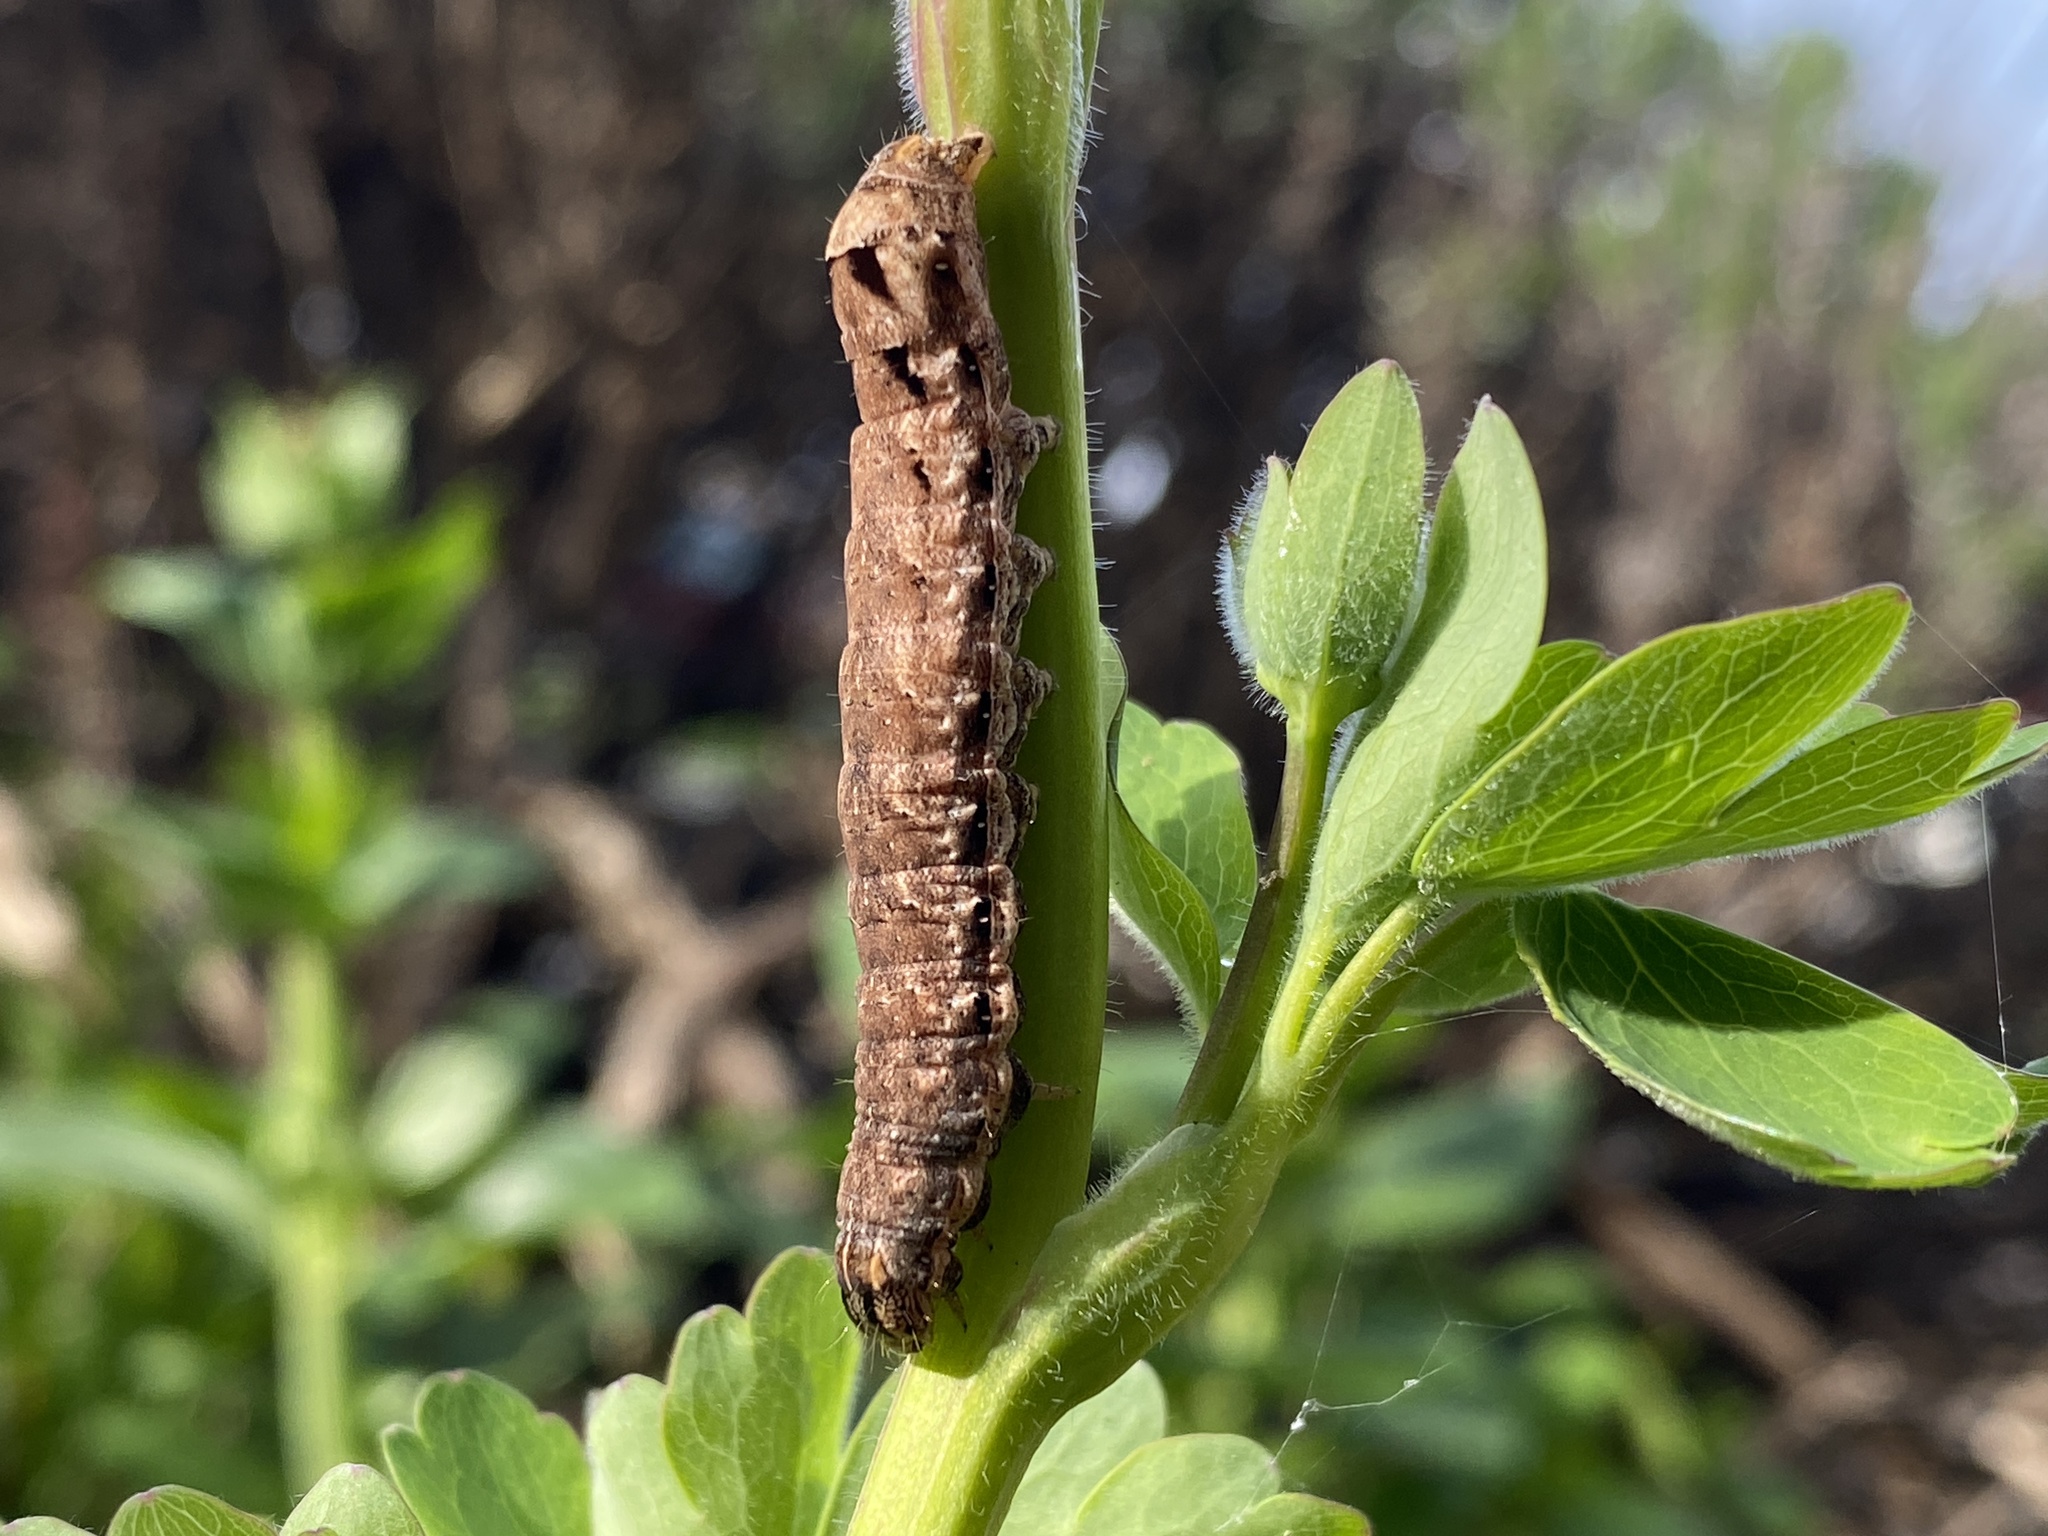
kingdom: Animalia
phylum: Arthropoda
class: Insecta
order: Lepidoptera
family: Noctuidae
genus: Noctua
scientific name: Noctua comes
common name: Lesser yellow underwing
